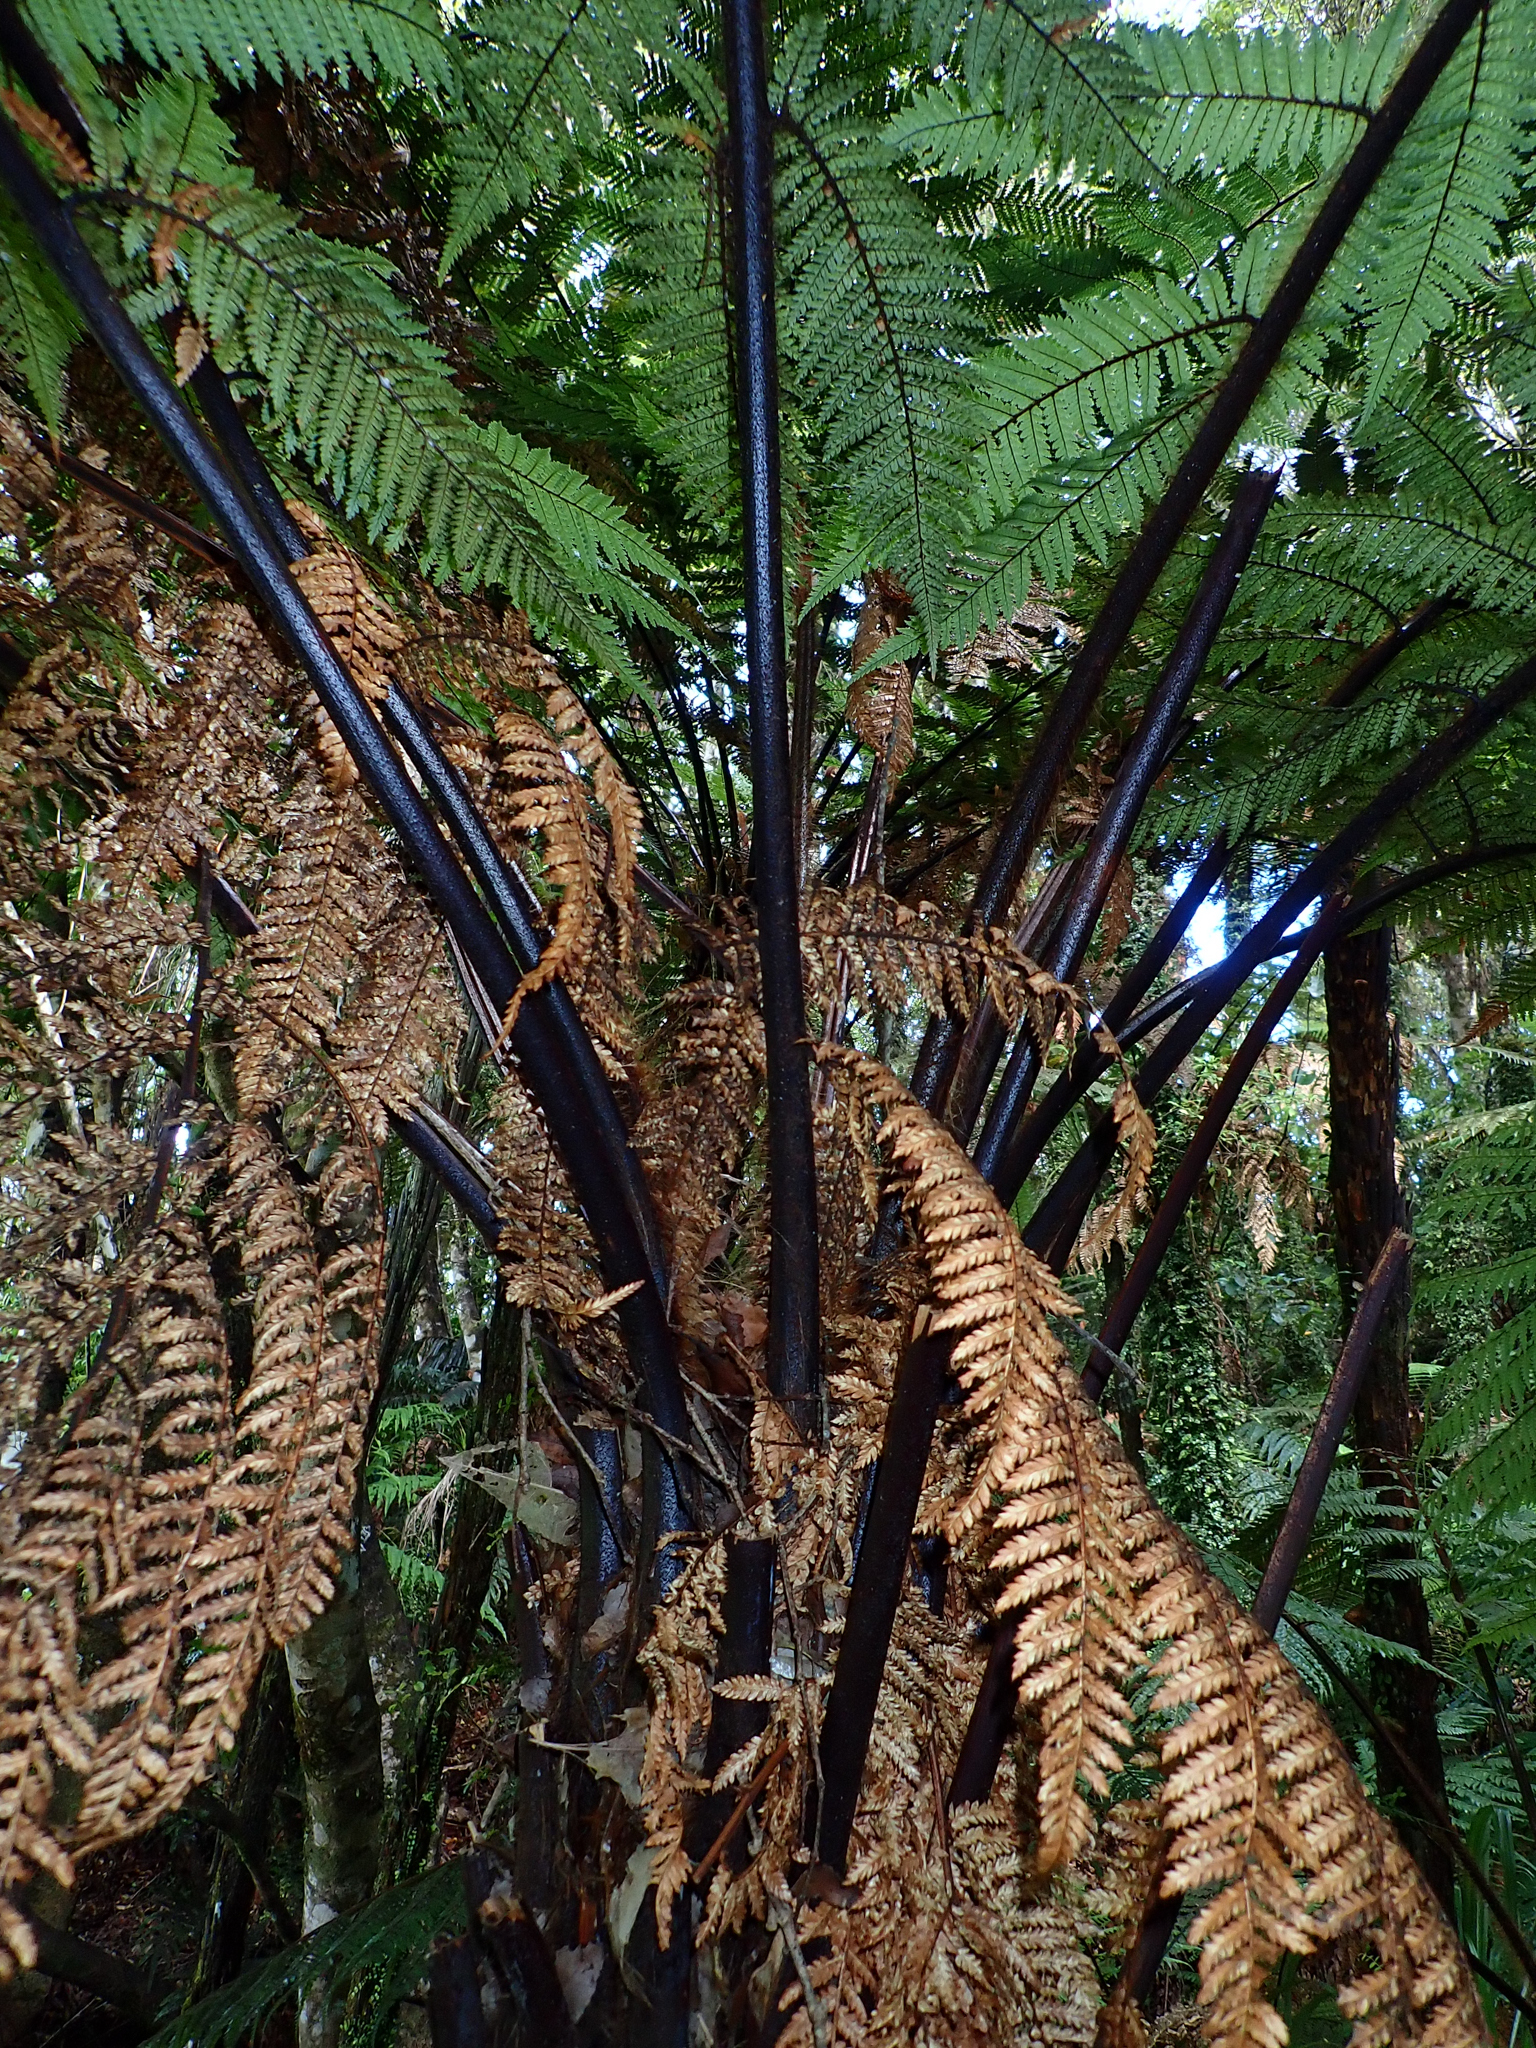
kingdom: Plantae
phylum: Tracheophyta
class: Polypodiopsida
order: Cyatheales
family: Dicksoniaceae
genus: Dicksonia
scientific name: Dicksonia squarrosa
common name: Hard treefern
